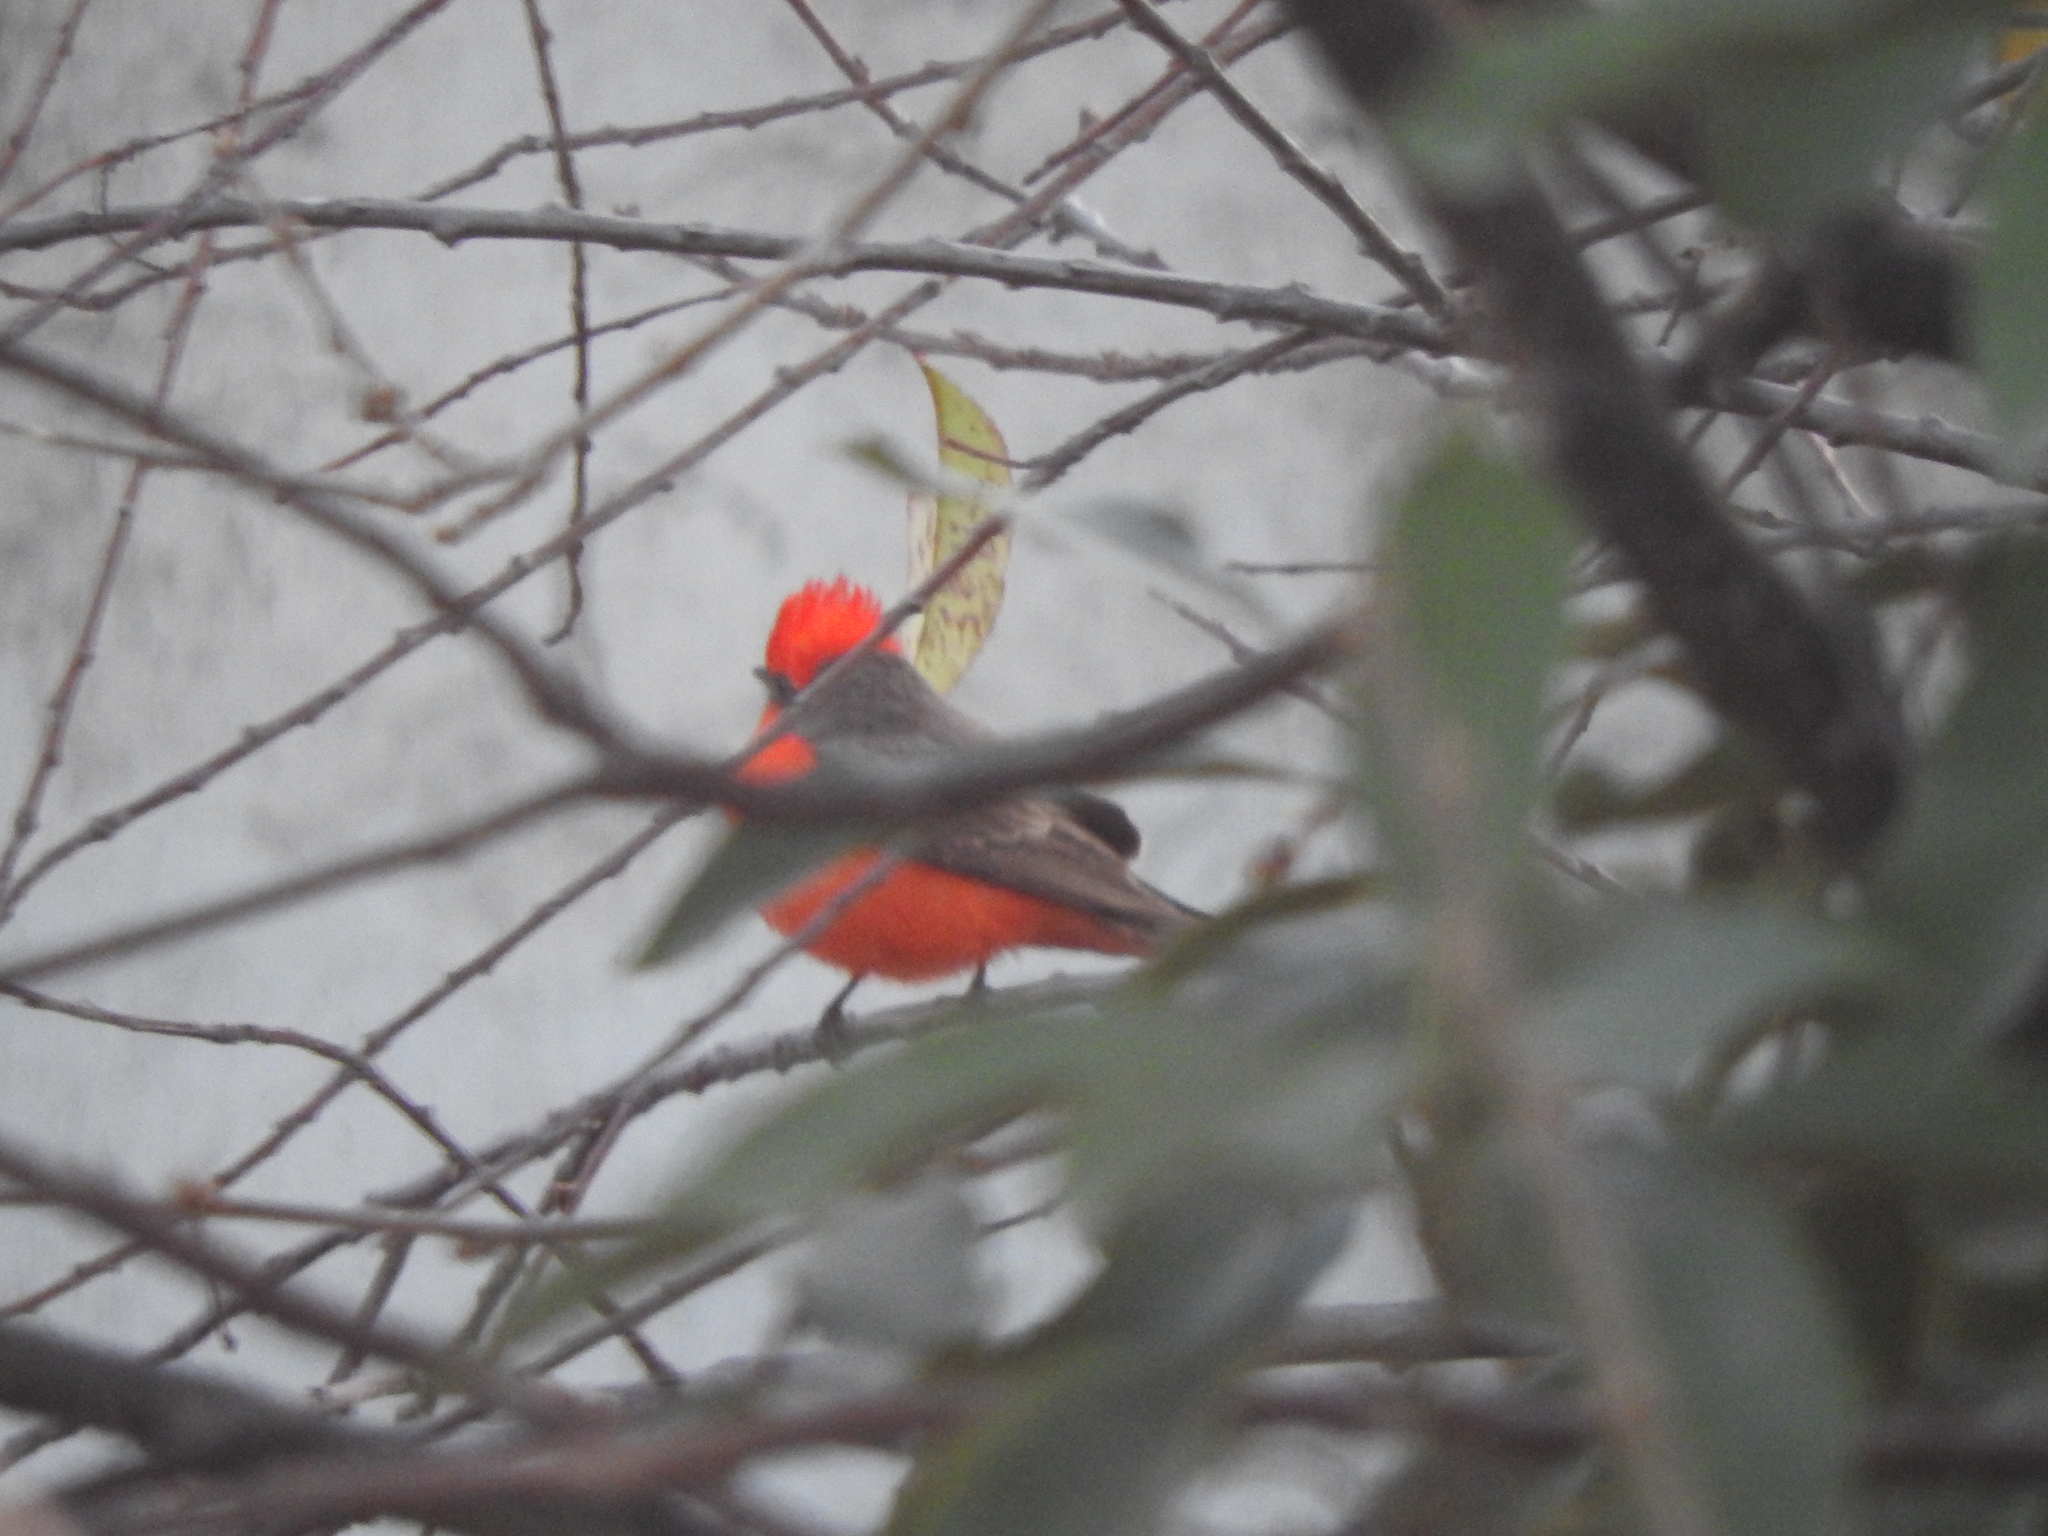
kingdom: Animalia
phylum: Chordata
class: Aves
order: Passeriformes
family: Tyrannidae
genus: Pyrocephalus
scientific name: Pyrocephalus rubinus
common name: Vermilion flycatcher
